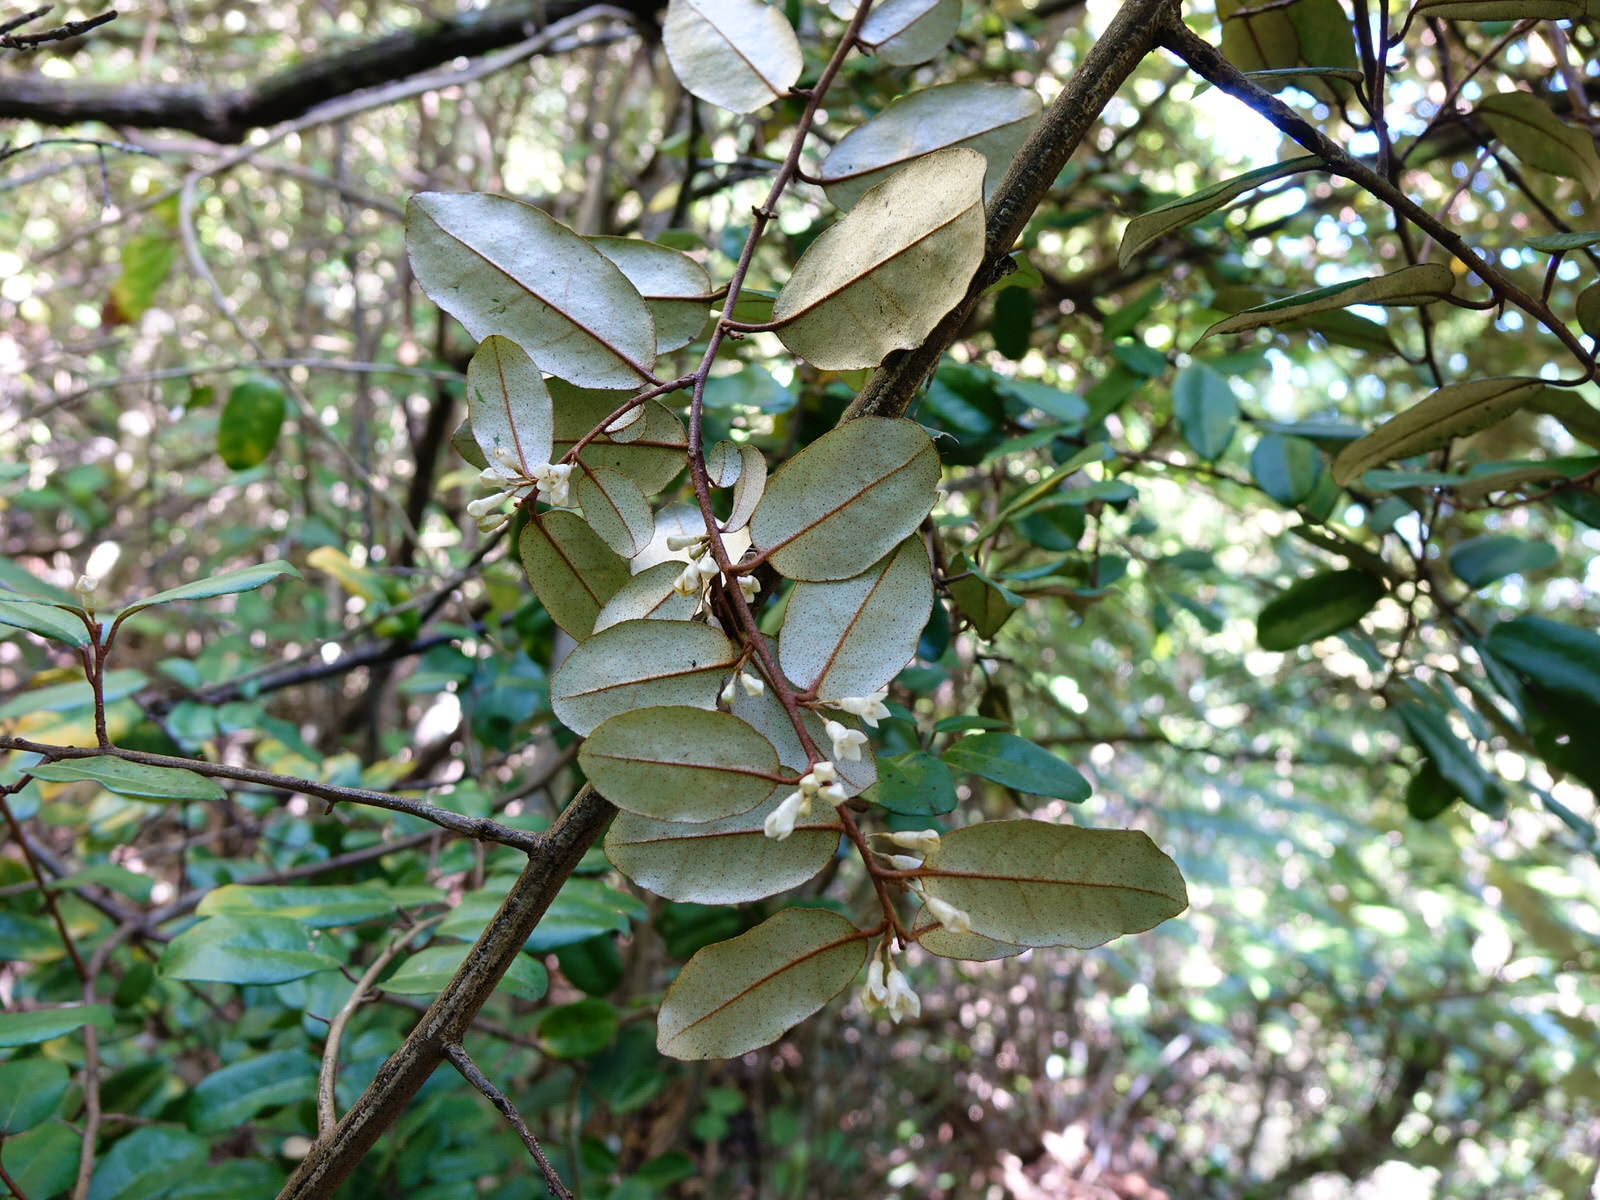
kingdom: Plantae
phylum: Tracheophyta
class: Magnoliopsida
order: Rosales
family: Elaeagnaceae
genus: Elaeagnus
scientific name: Elaeagnus reflexa
